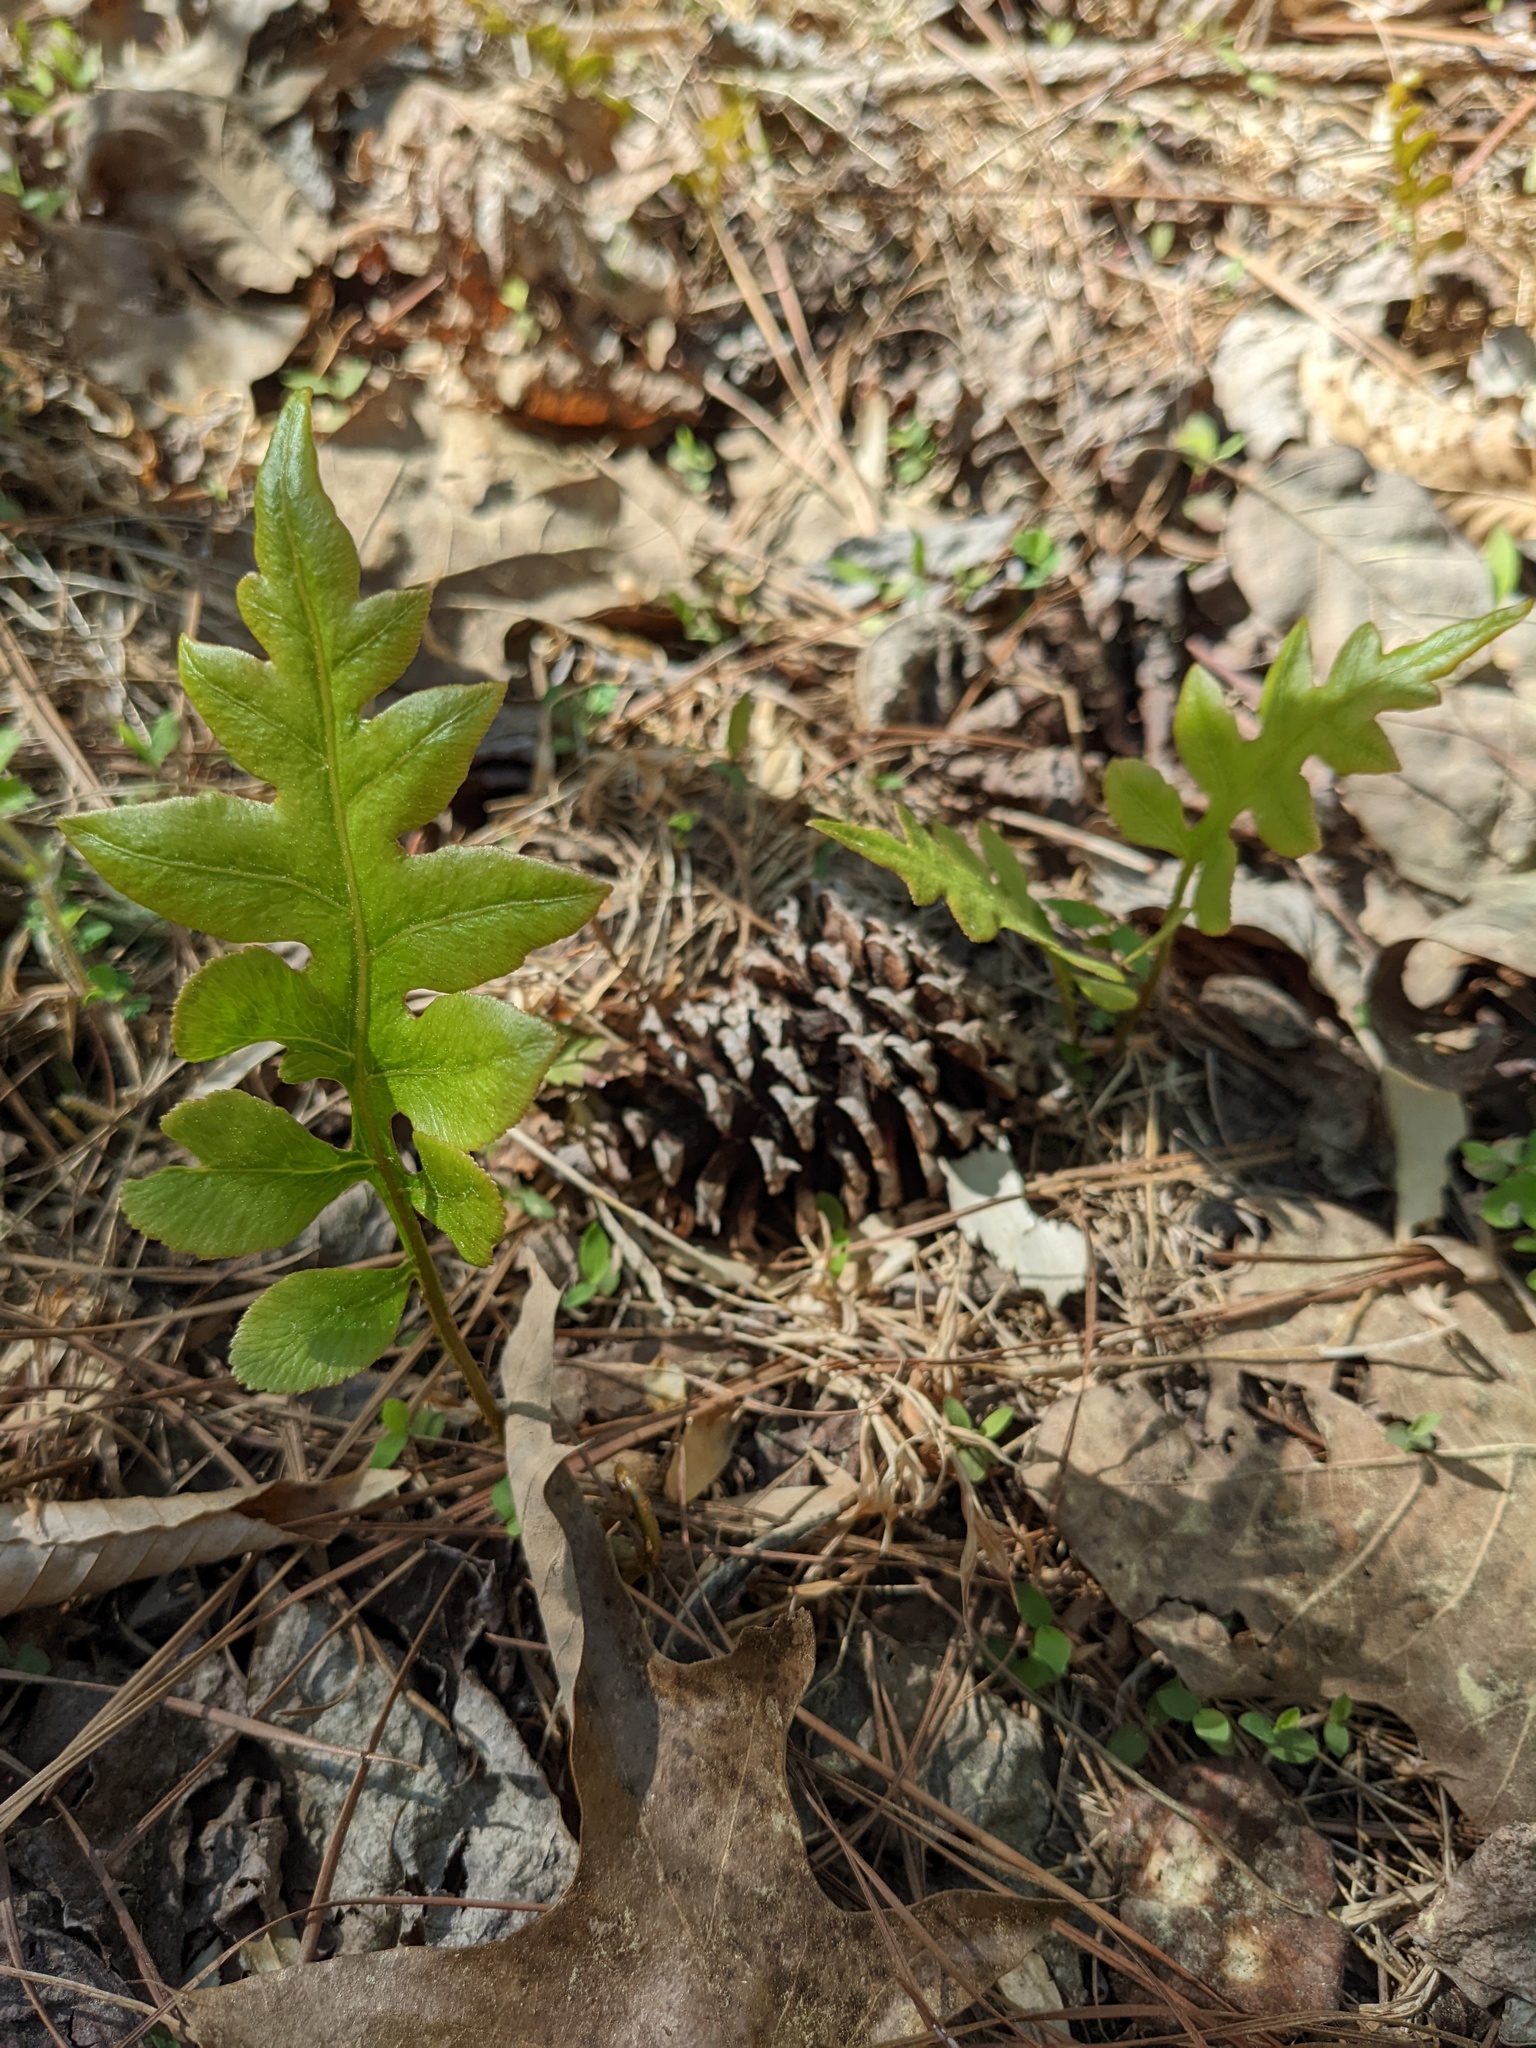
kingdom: Plantae
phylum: Tracheophyta
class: Polypodiopsida
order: Polypodiales
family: Blechnaceae
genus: Lorinseria
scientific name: Lorinseria areolata
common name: Dwarf chain fern
